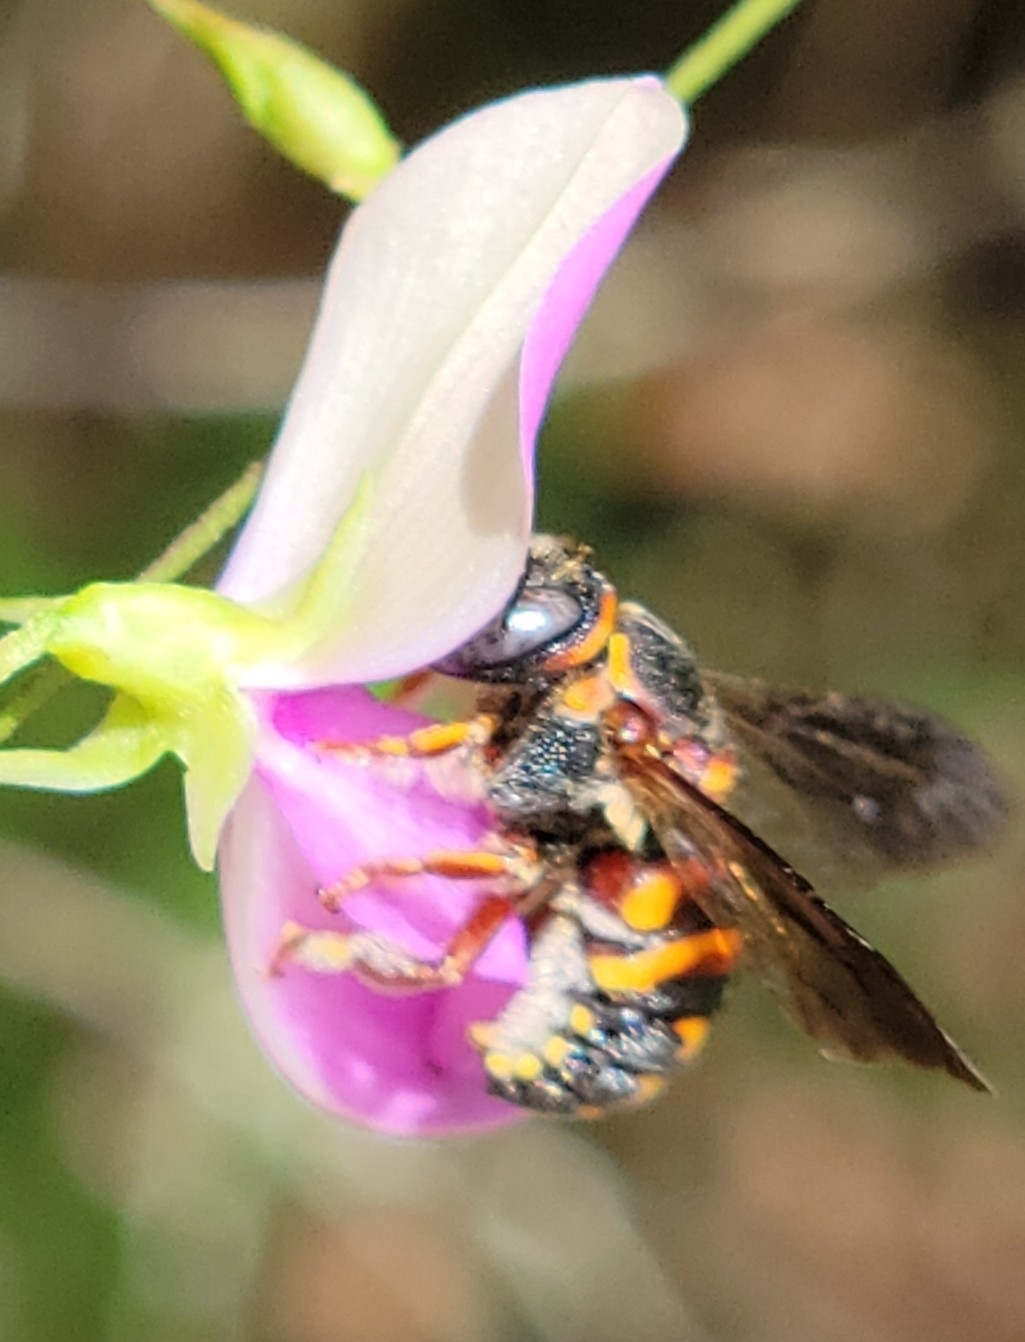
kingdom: Animalia
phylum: Arthropoda
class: Insecta
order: Hymenoptera
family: Megachilidae
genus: Anthidiellum
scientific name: Anthidiellum perplexum
